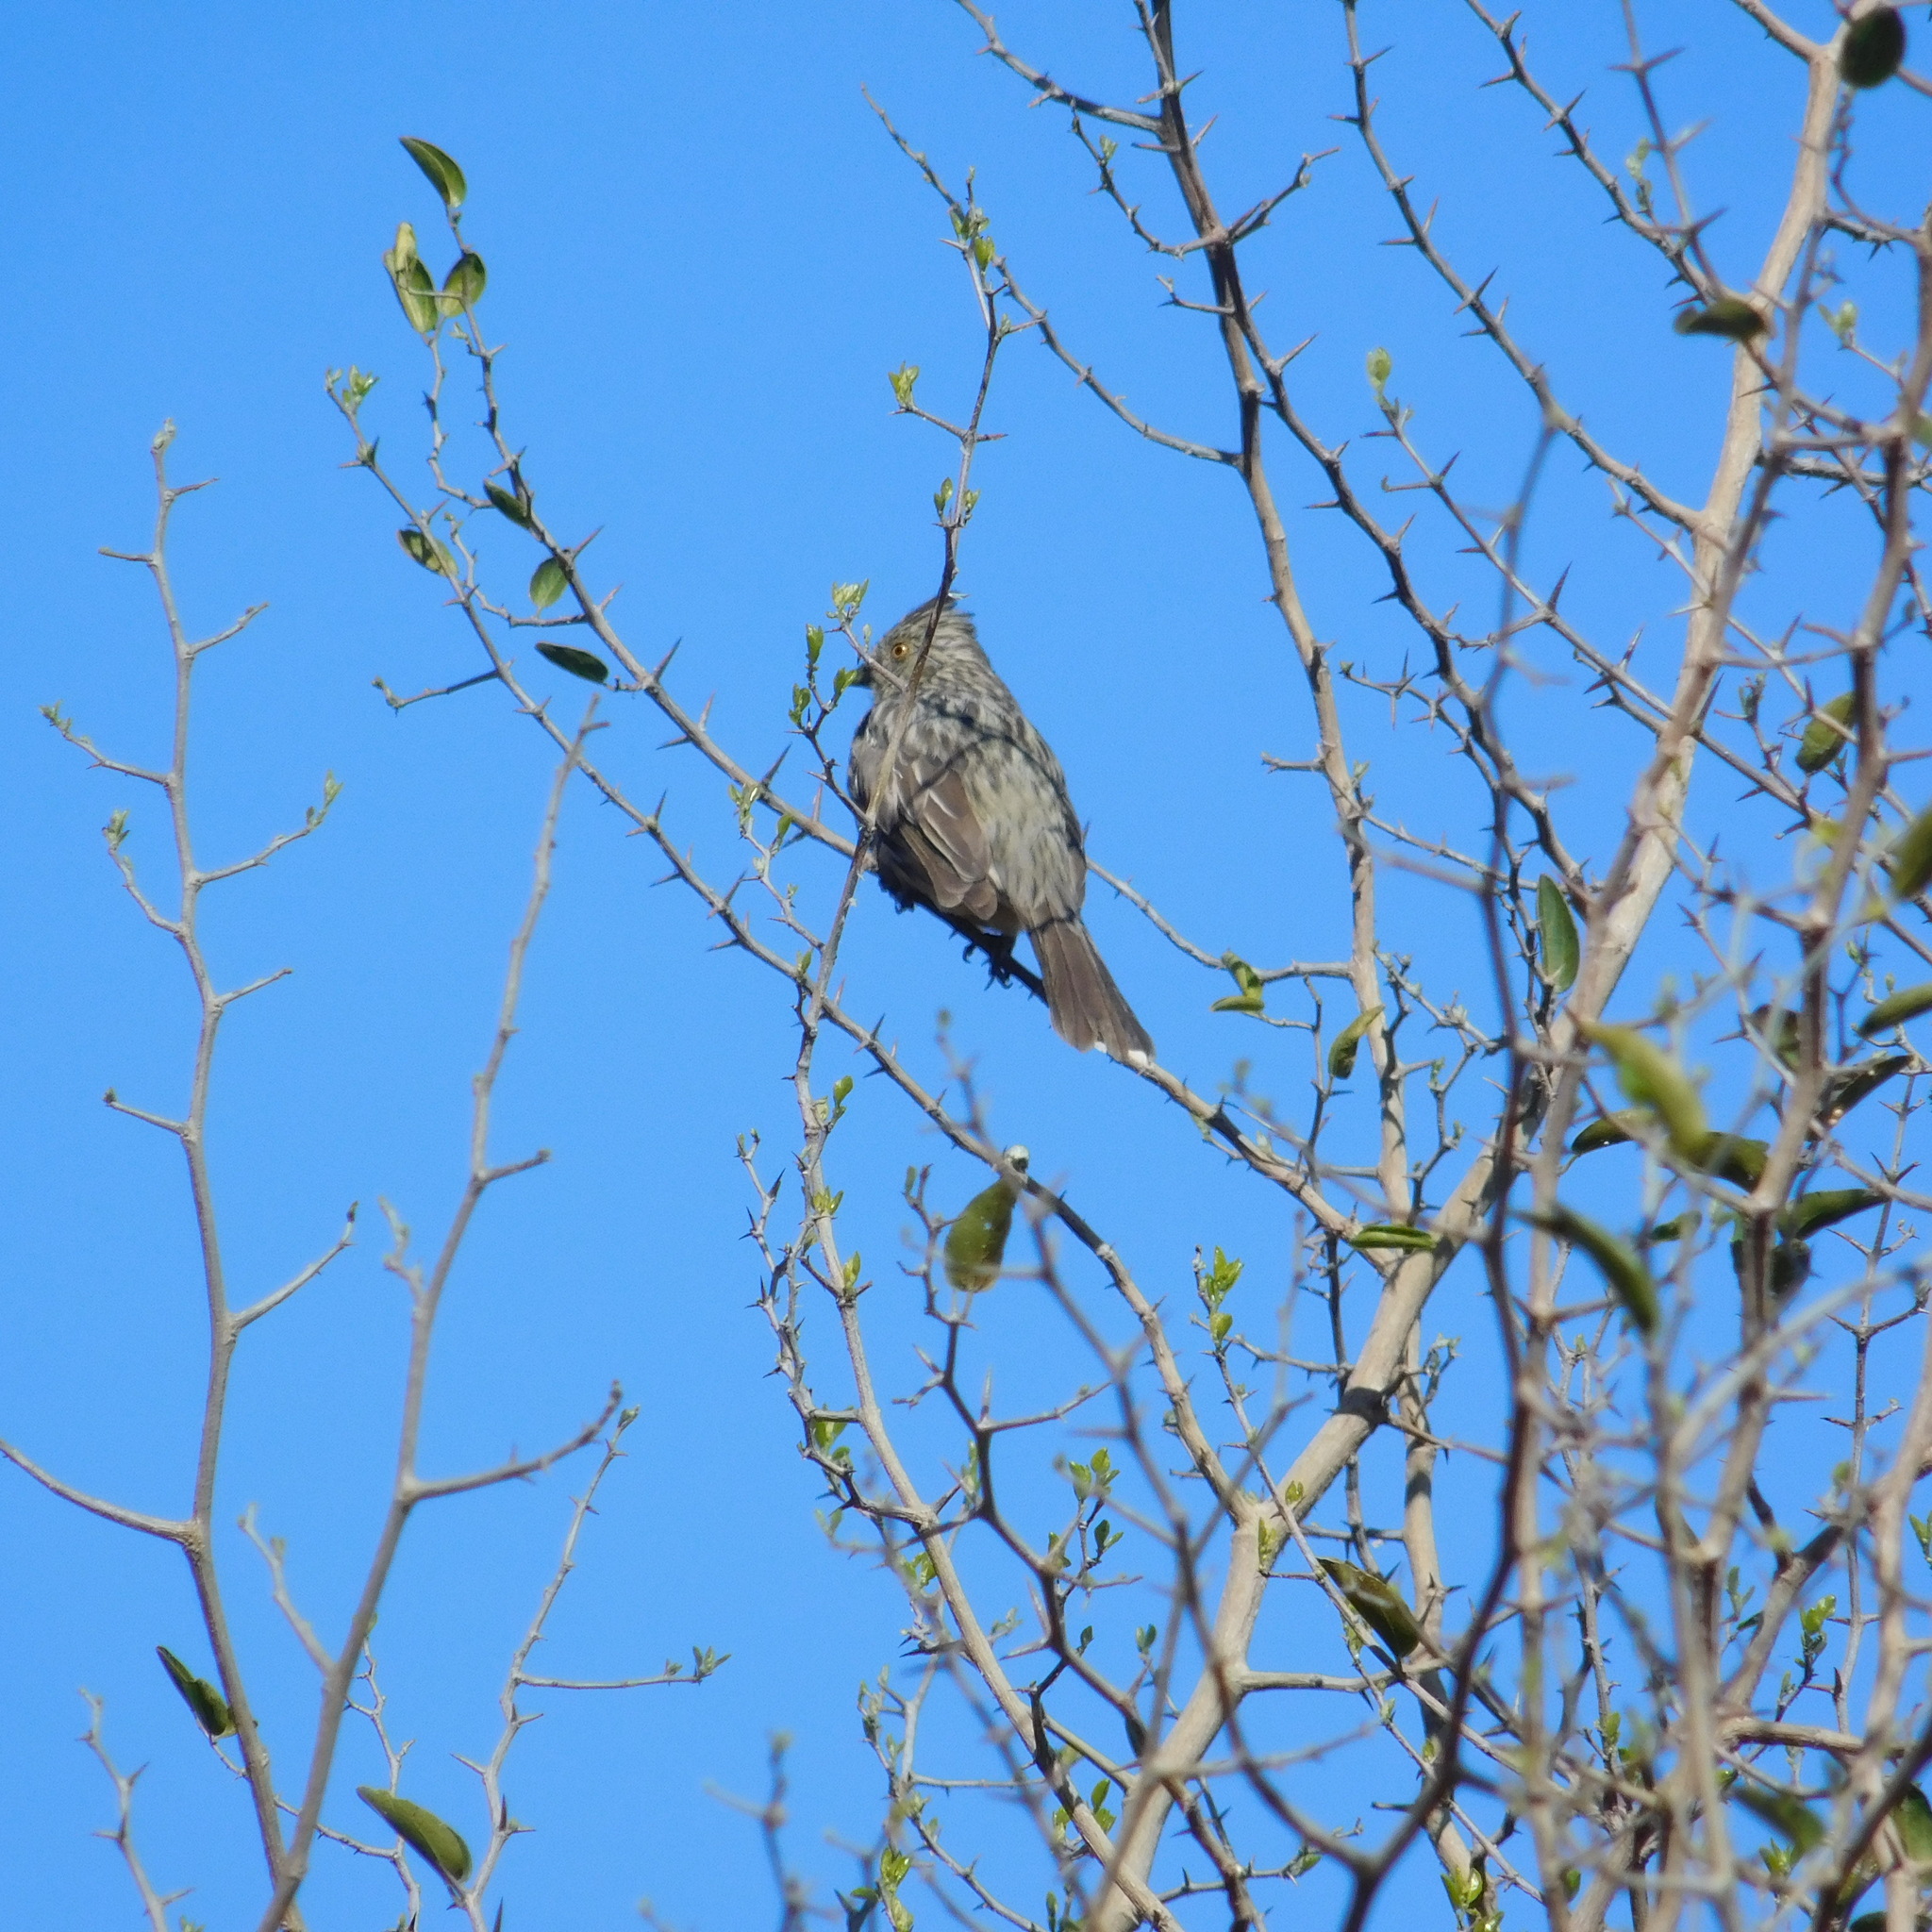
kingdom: Animalia
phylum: Chordata
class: Aves
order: Passeriformes
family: Cotingidae
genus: Phytotoma
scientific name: Phytotoma rutila
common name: White-tipped plantcutter
